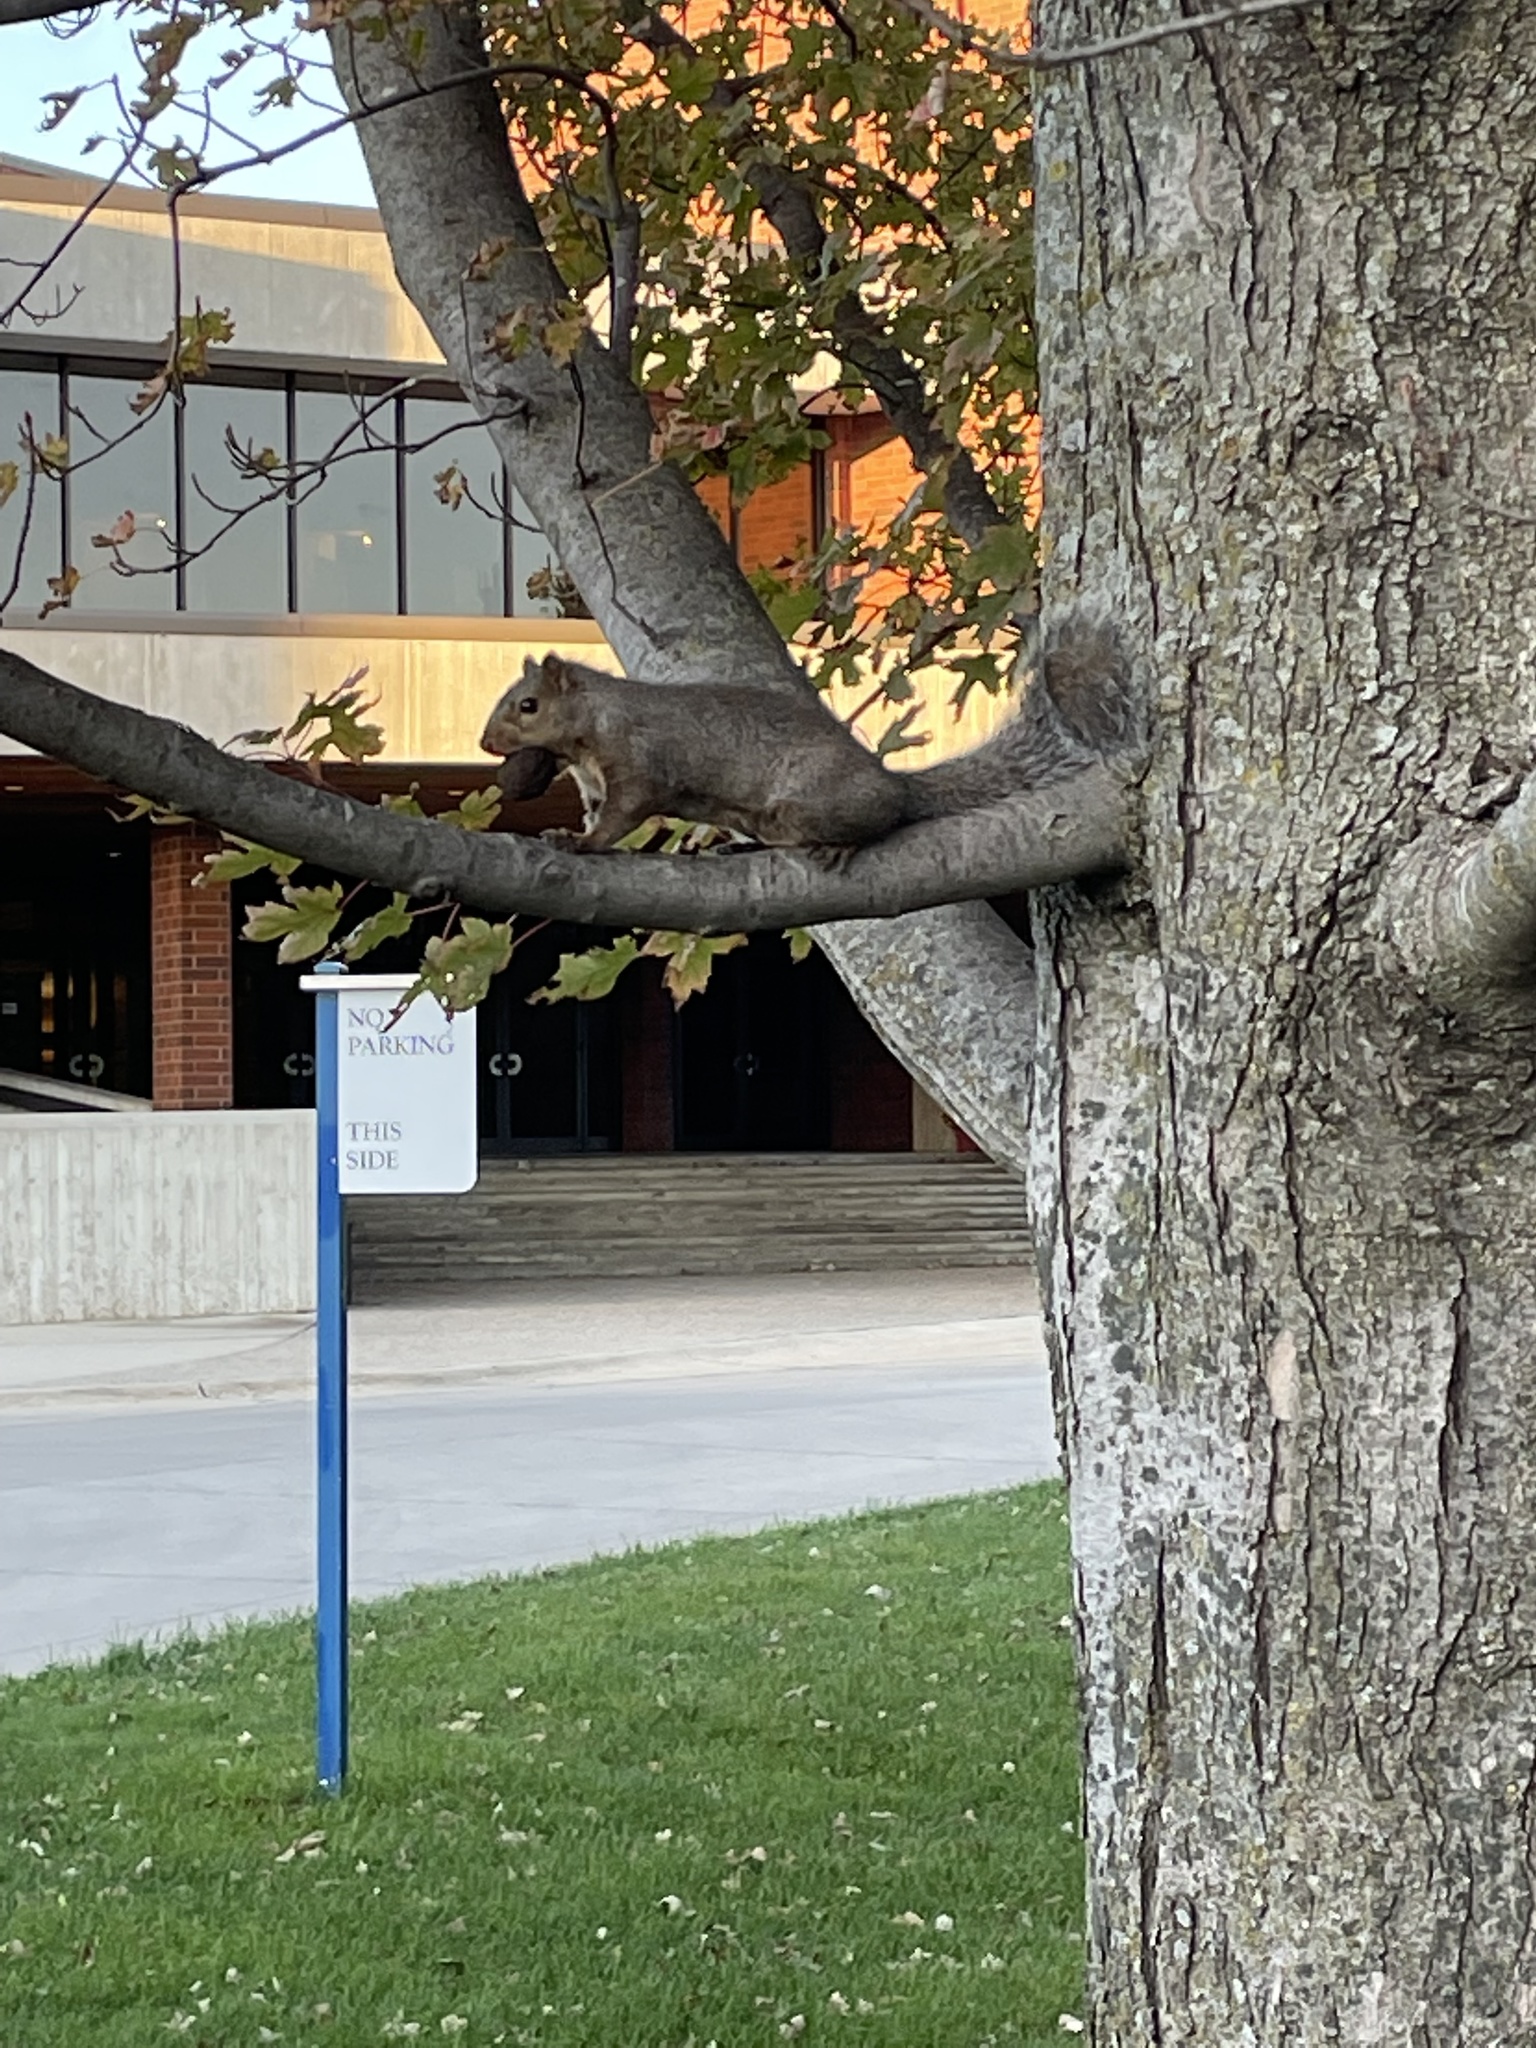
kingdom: Animalia
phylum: Chordata
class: Mammalia
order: Rodentia
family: Sciuridae
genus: Sciurus
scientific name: Sciurus carolinensis
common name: Eastern gray squirrel
